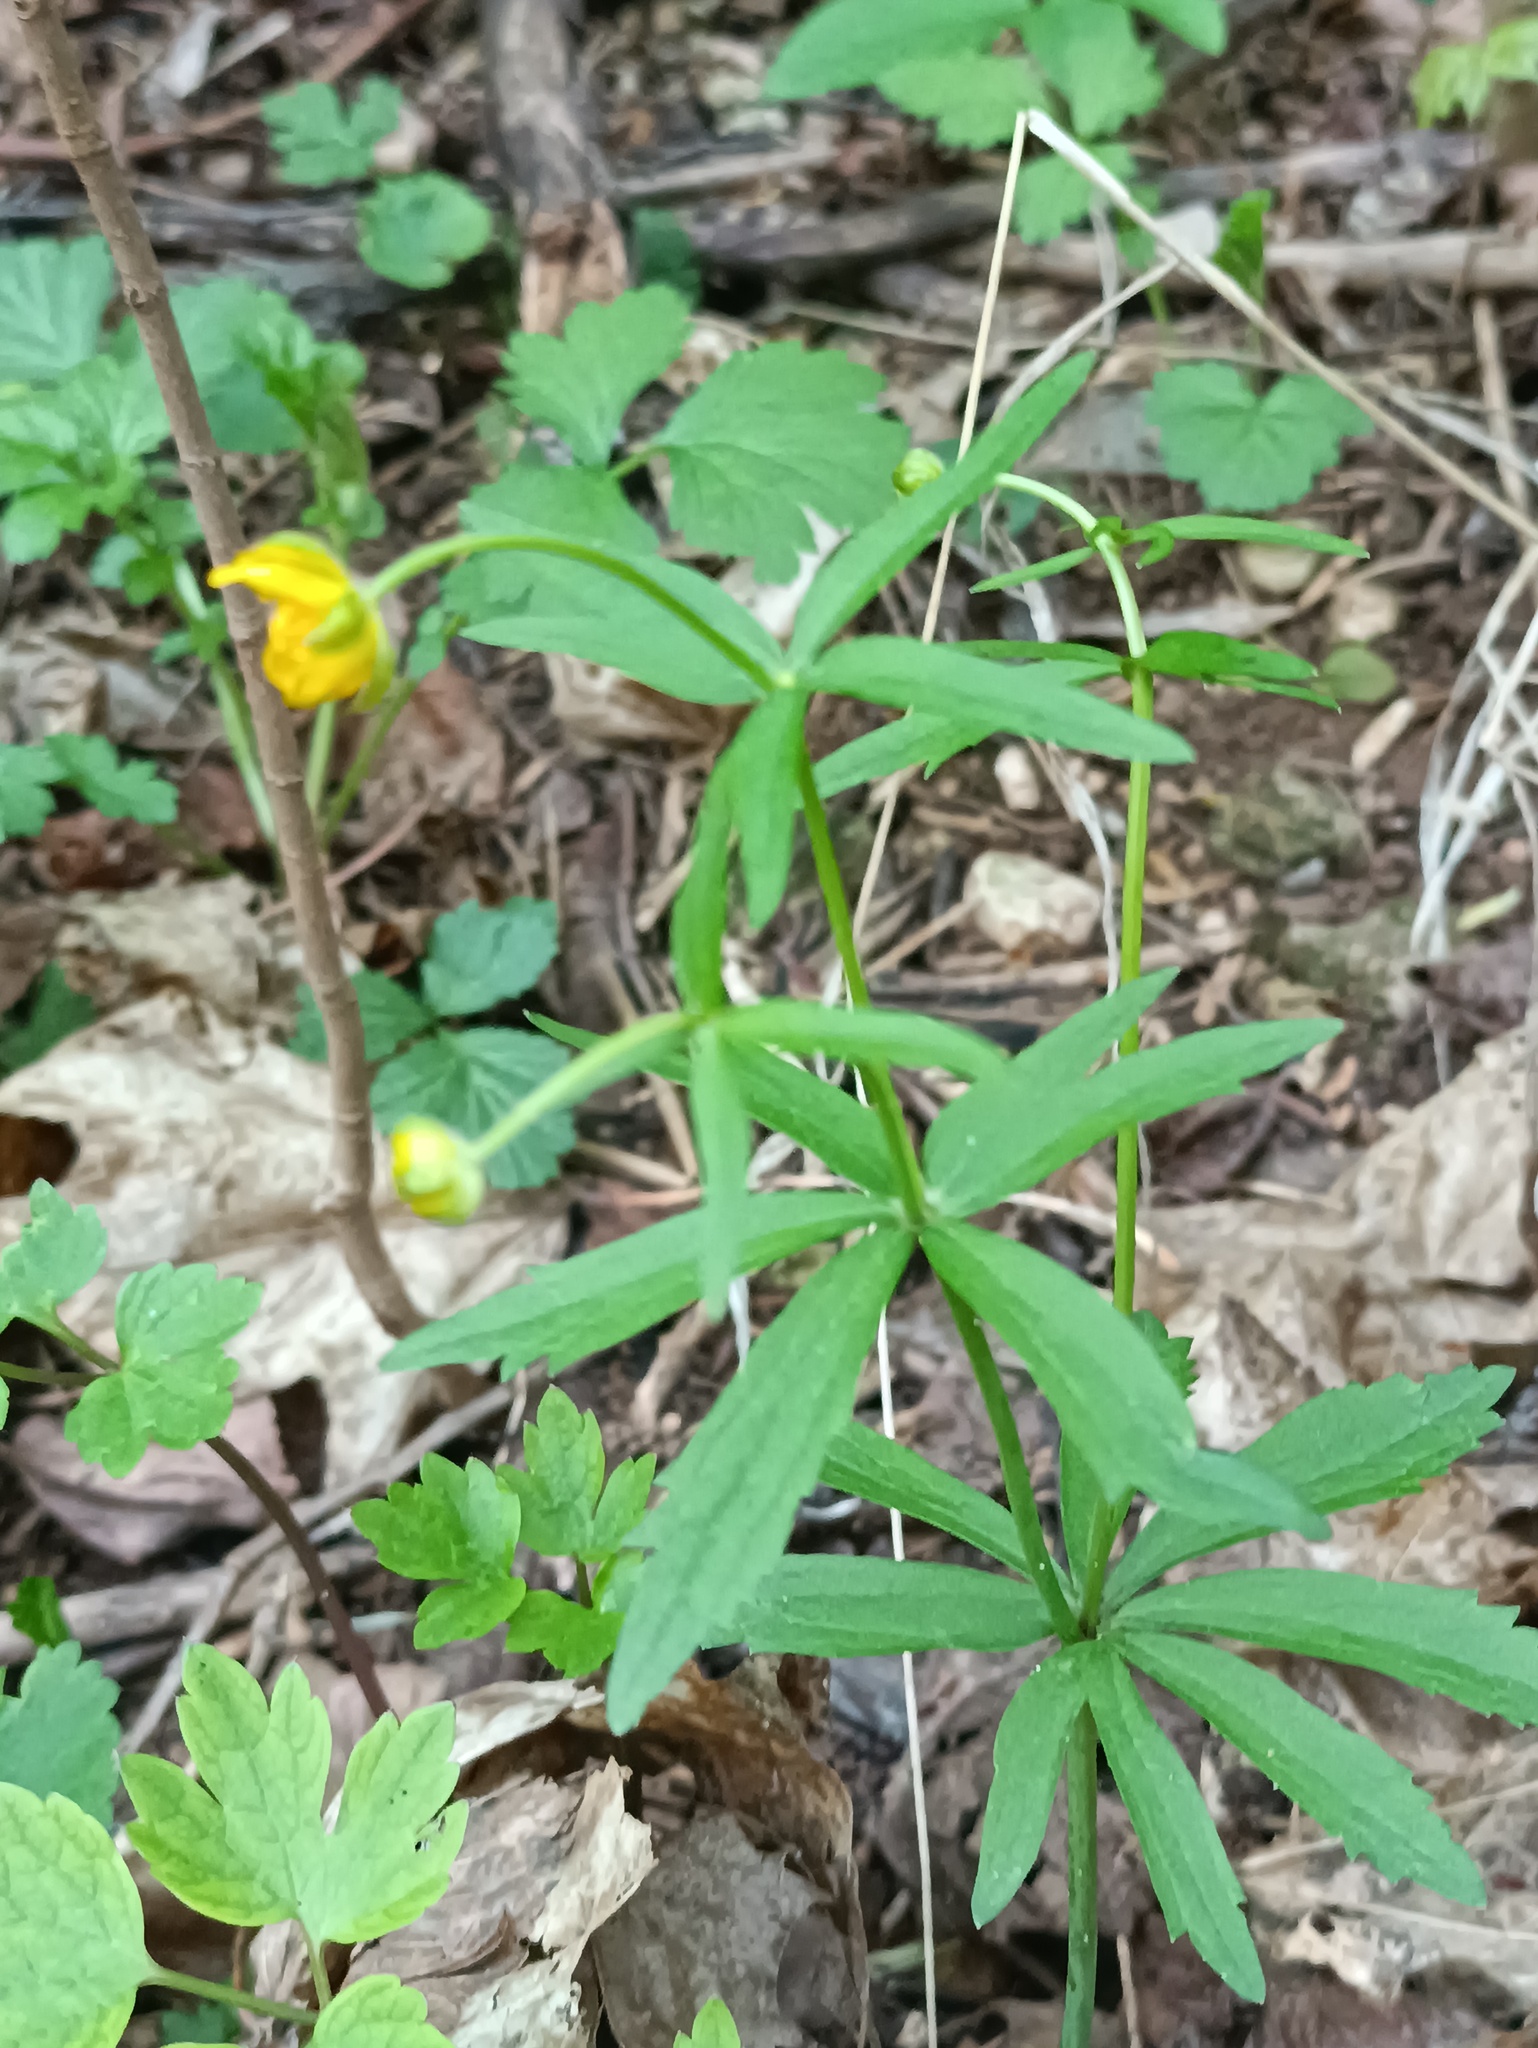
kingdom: Plantae
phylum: Tracheophyta
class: Magnoliopsida
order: Ranunculales
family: Ranunculaceae
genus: Ranunculus
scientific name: Ranunculus cassubicus
